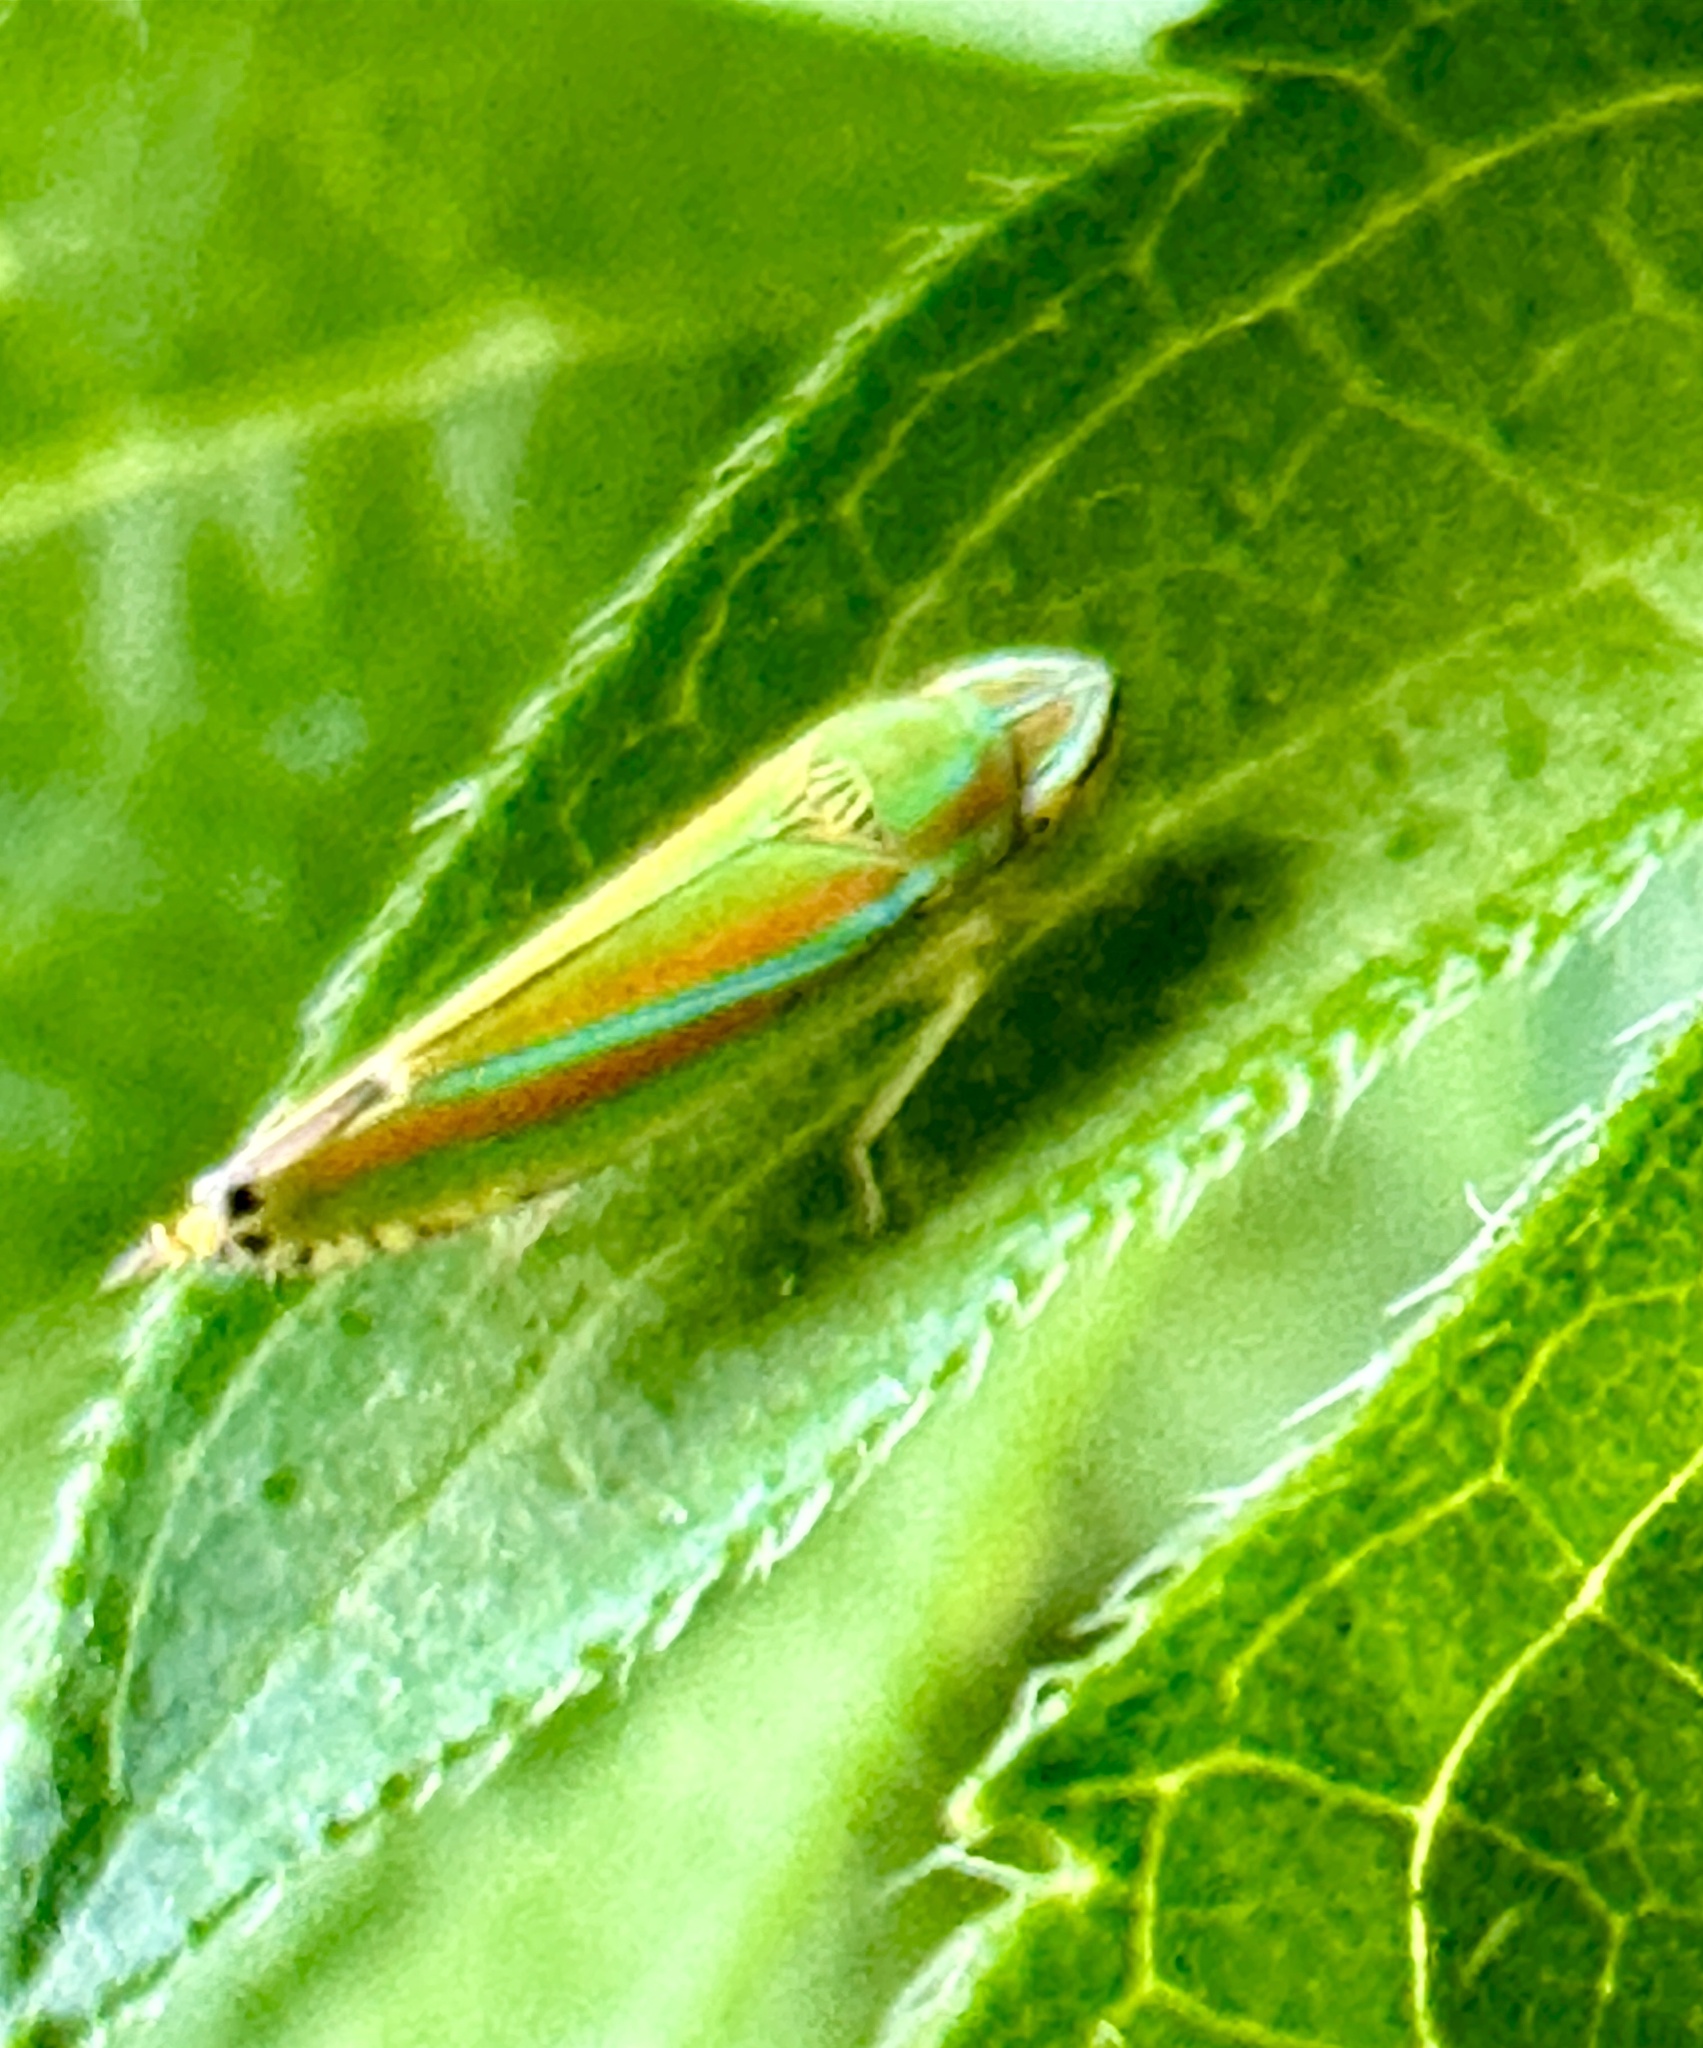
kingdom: Animalia
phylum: Arthropoda
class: Insecta
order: Hemiptera
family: Cicadellidae
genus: Graphocephala
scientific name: Graphocephala versuta
